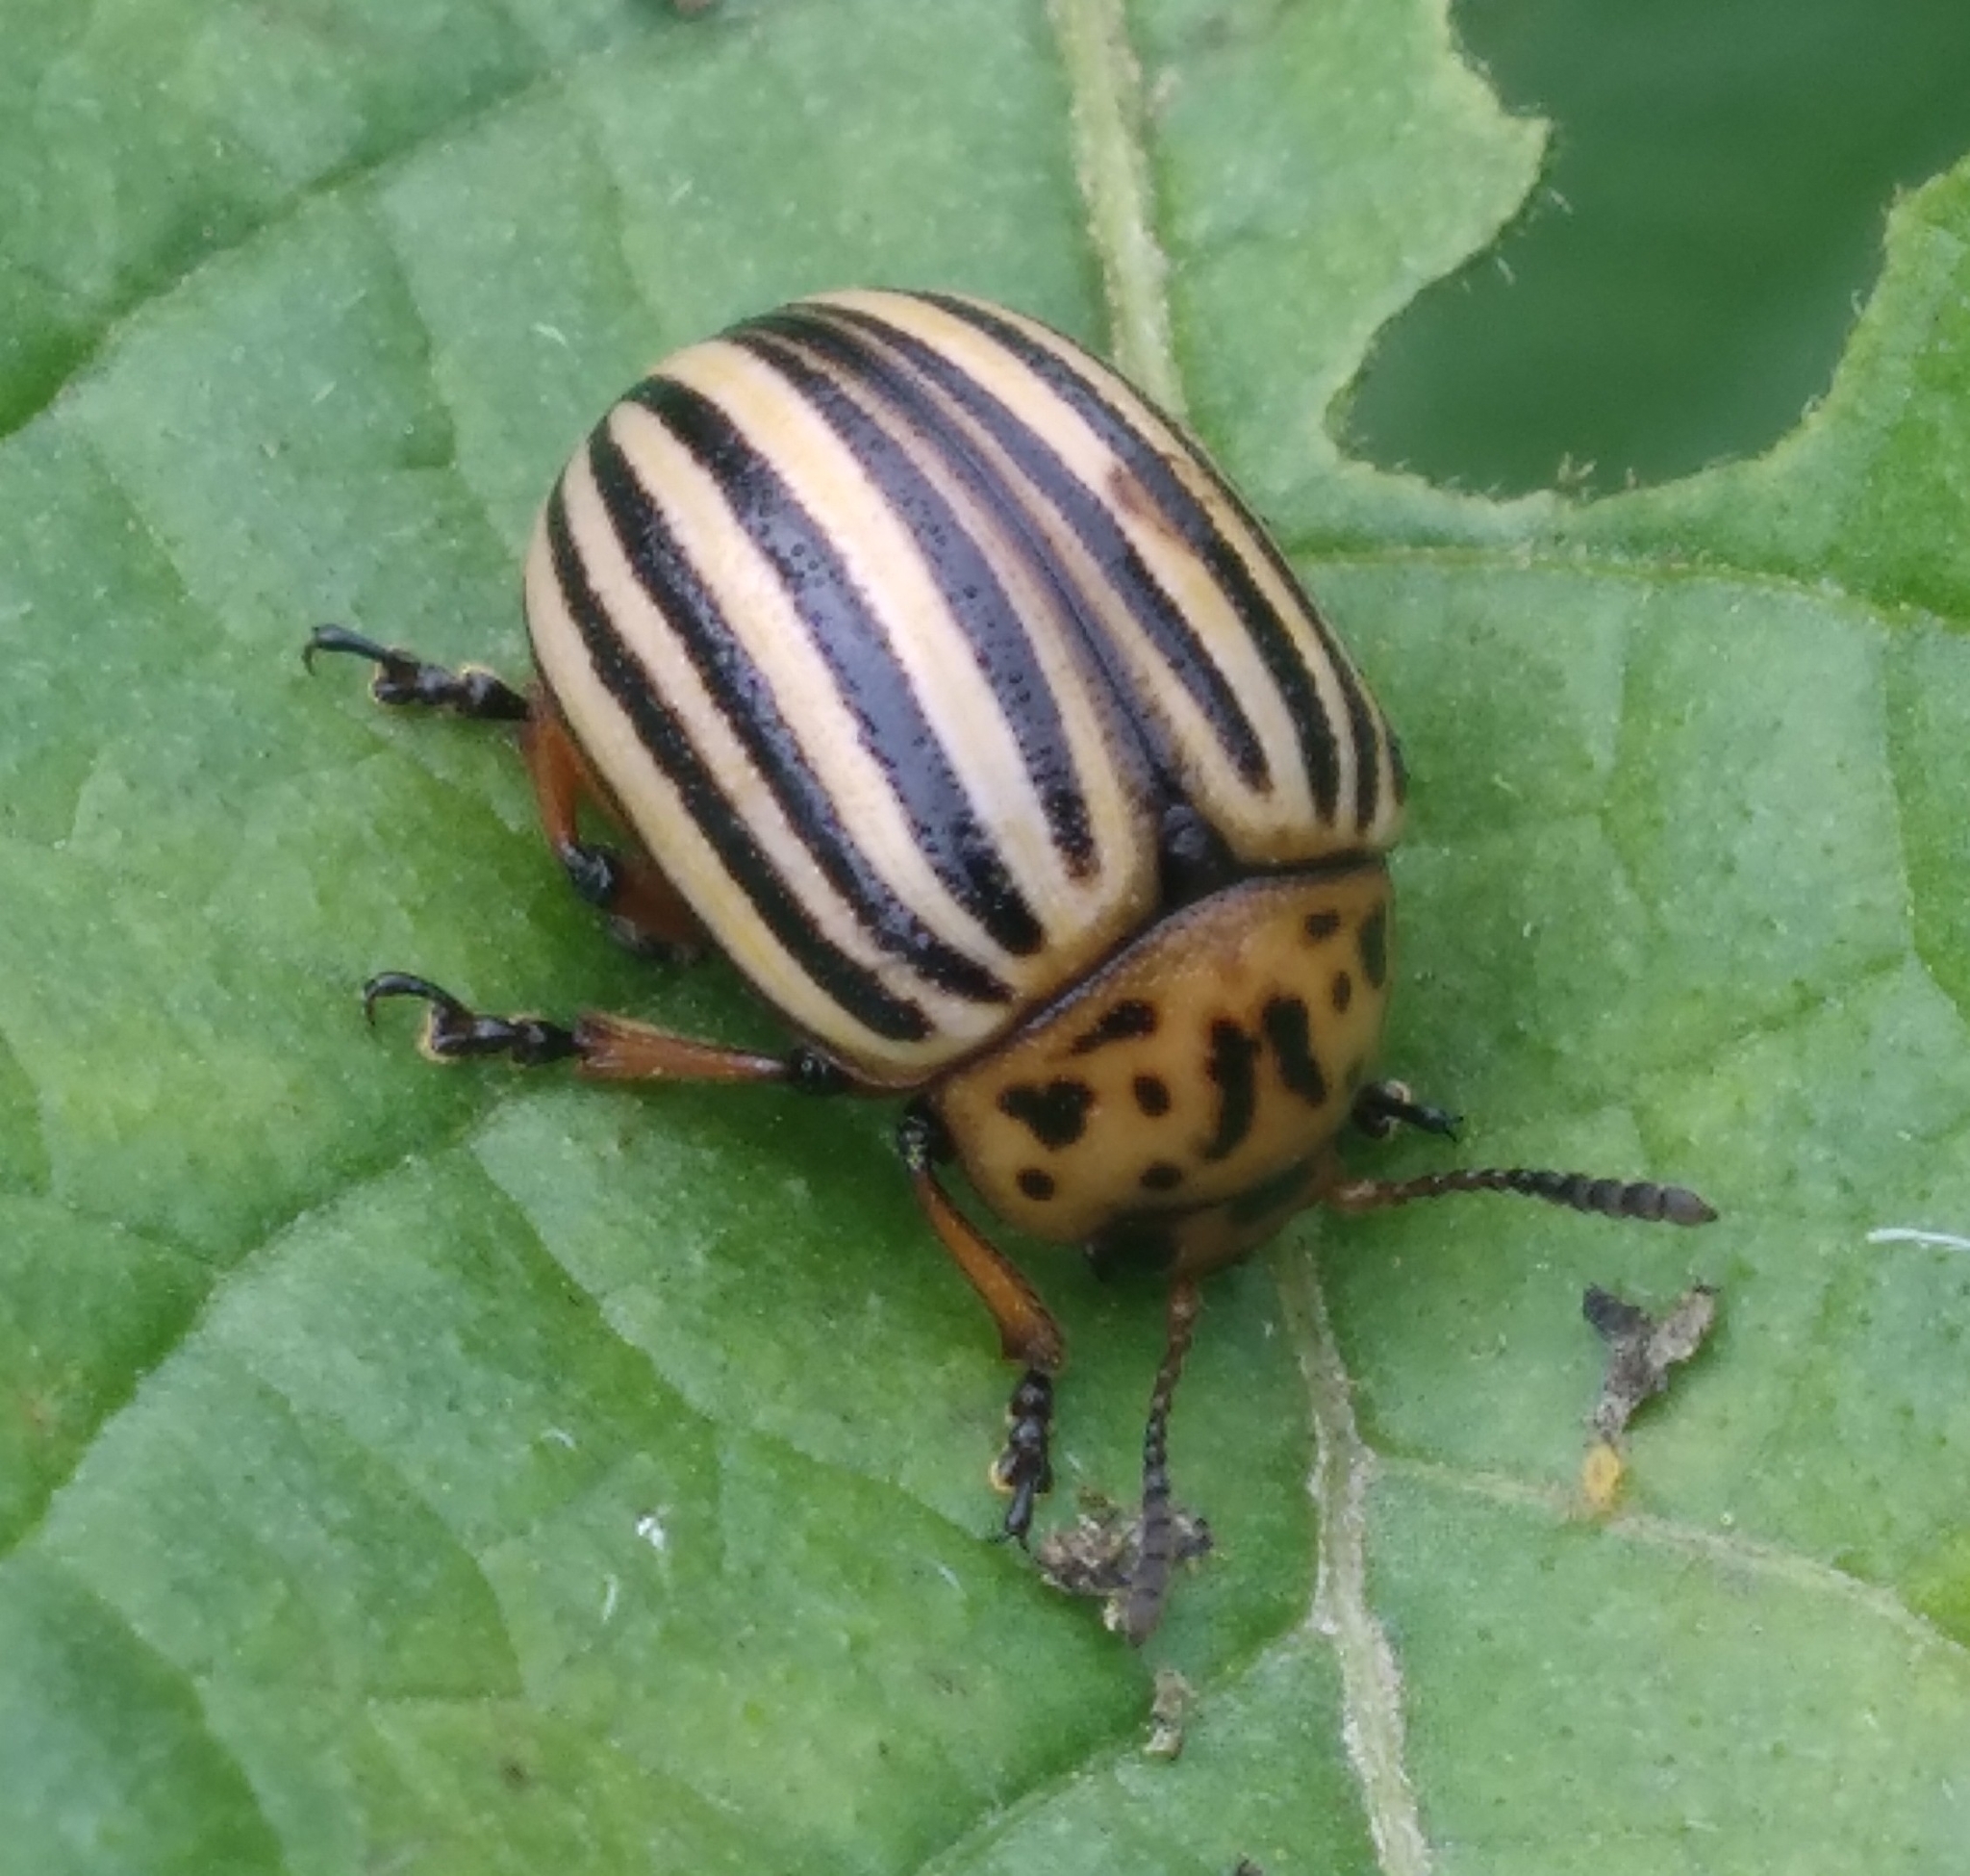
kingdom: Animalia
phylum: Arthropoda
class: Insecta
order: Coleoptera
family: Chrysomelidae
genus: Leptinotarsa
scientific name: Leptinotarsa decemlineata
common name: Colorado potato beetle
